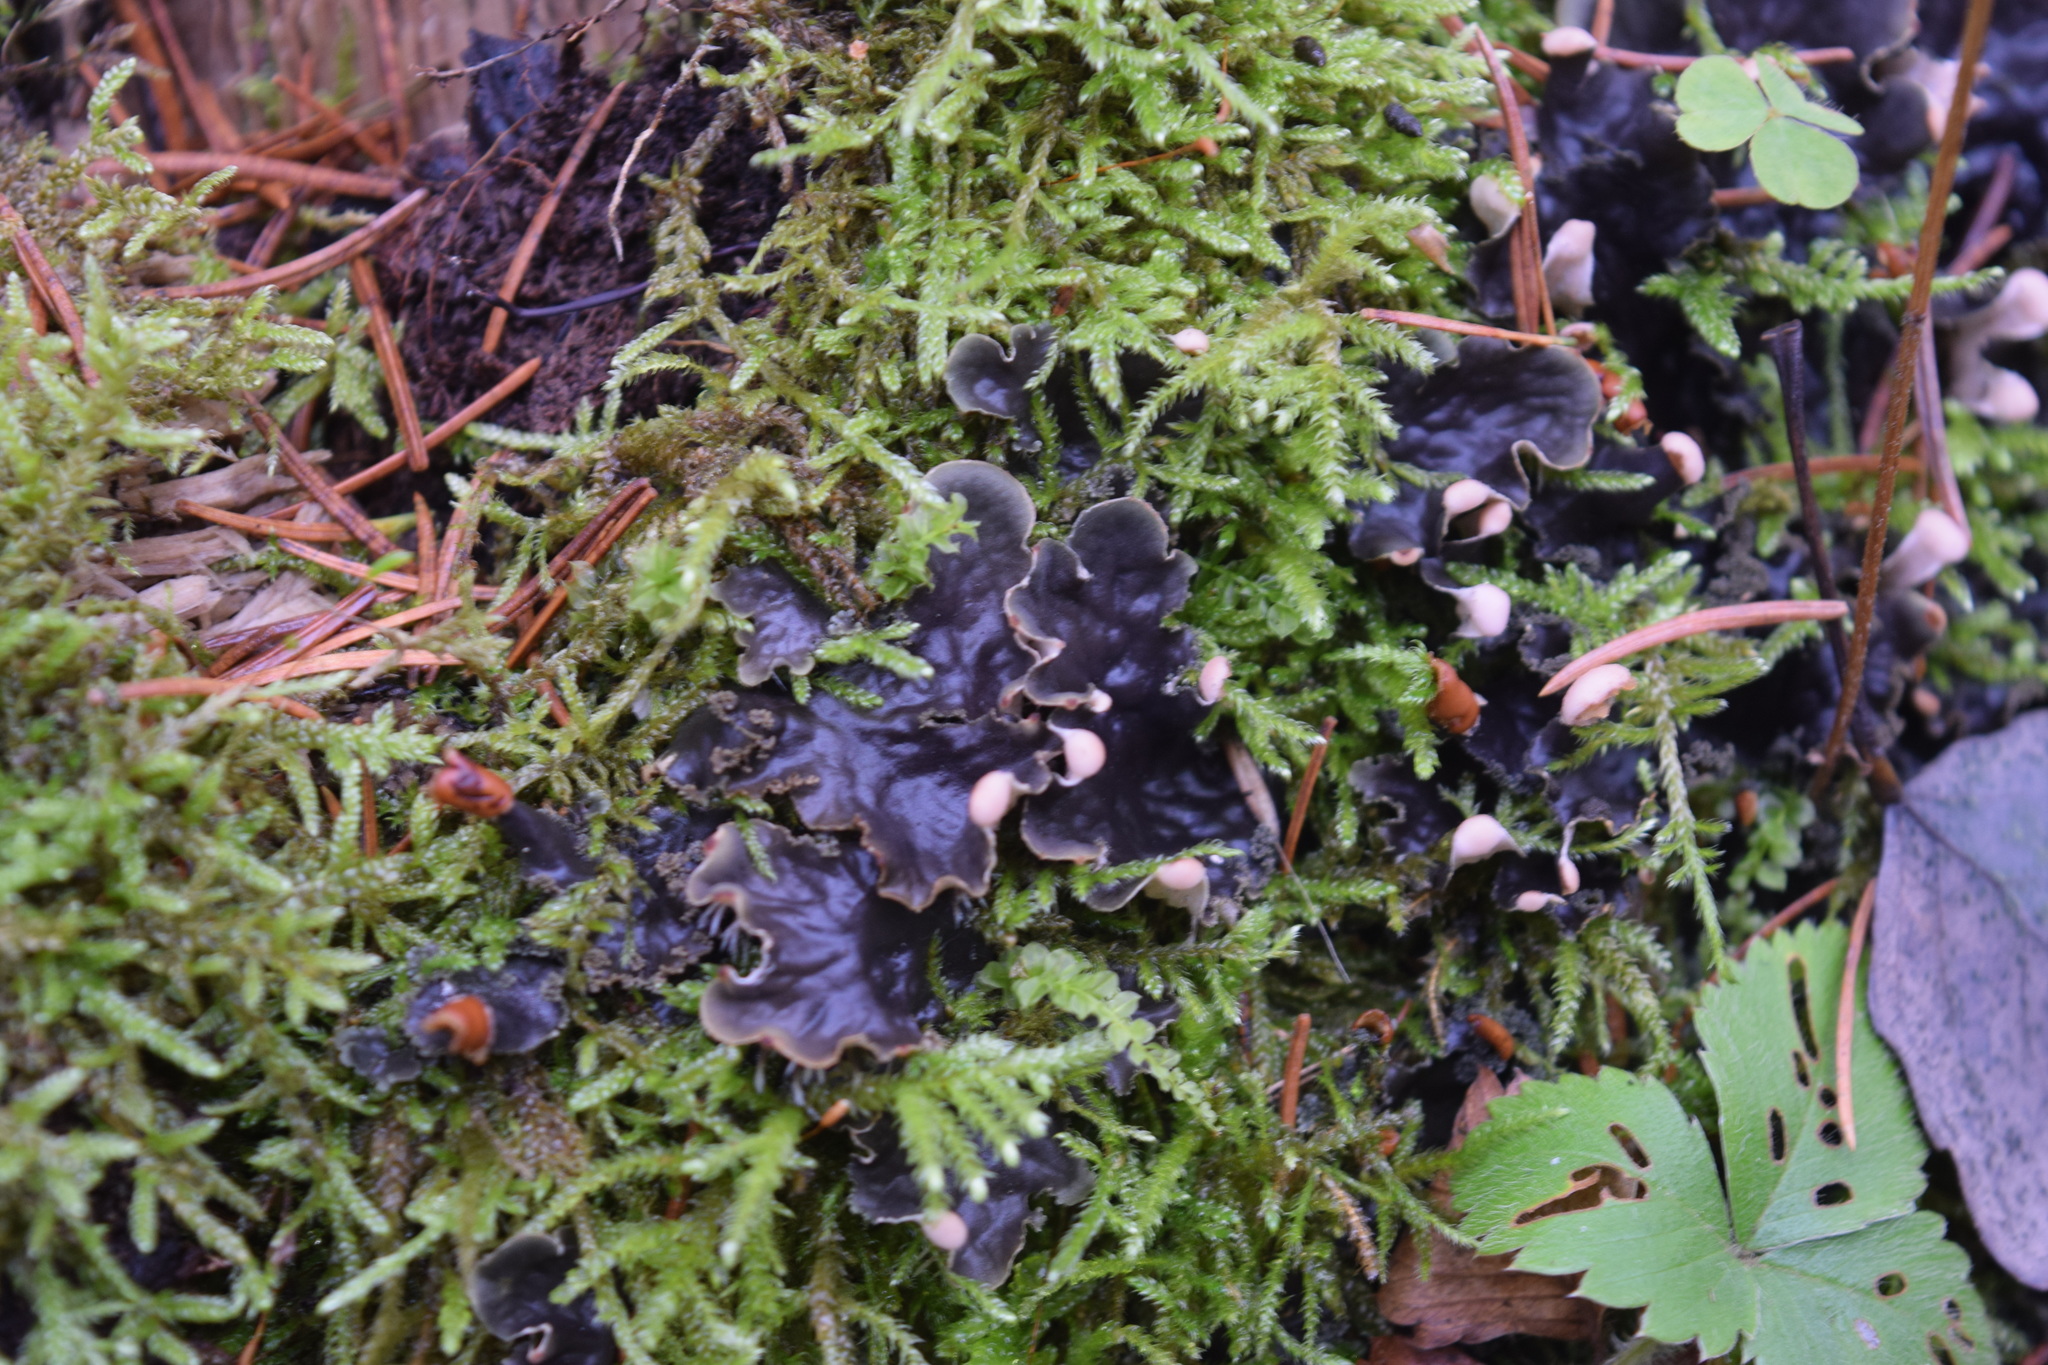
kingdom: Fungi
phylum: Ascomycota
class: Lecanoromycetes
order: Peltigerales
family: Peltigeraceae
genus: Peltigera
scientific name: Peltigera praetextata
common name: Scaly dog-lichen
